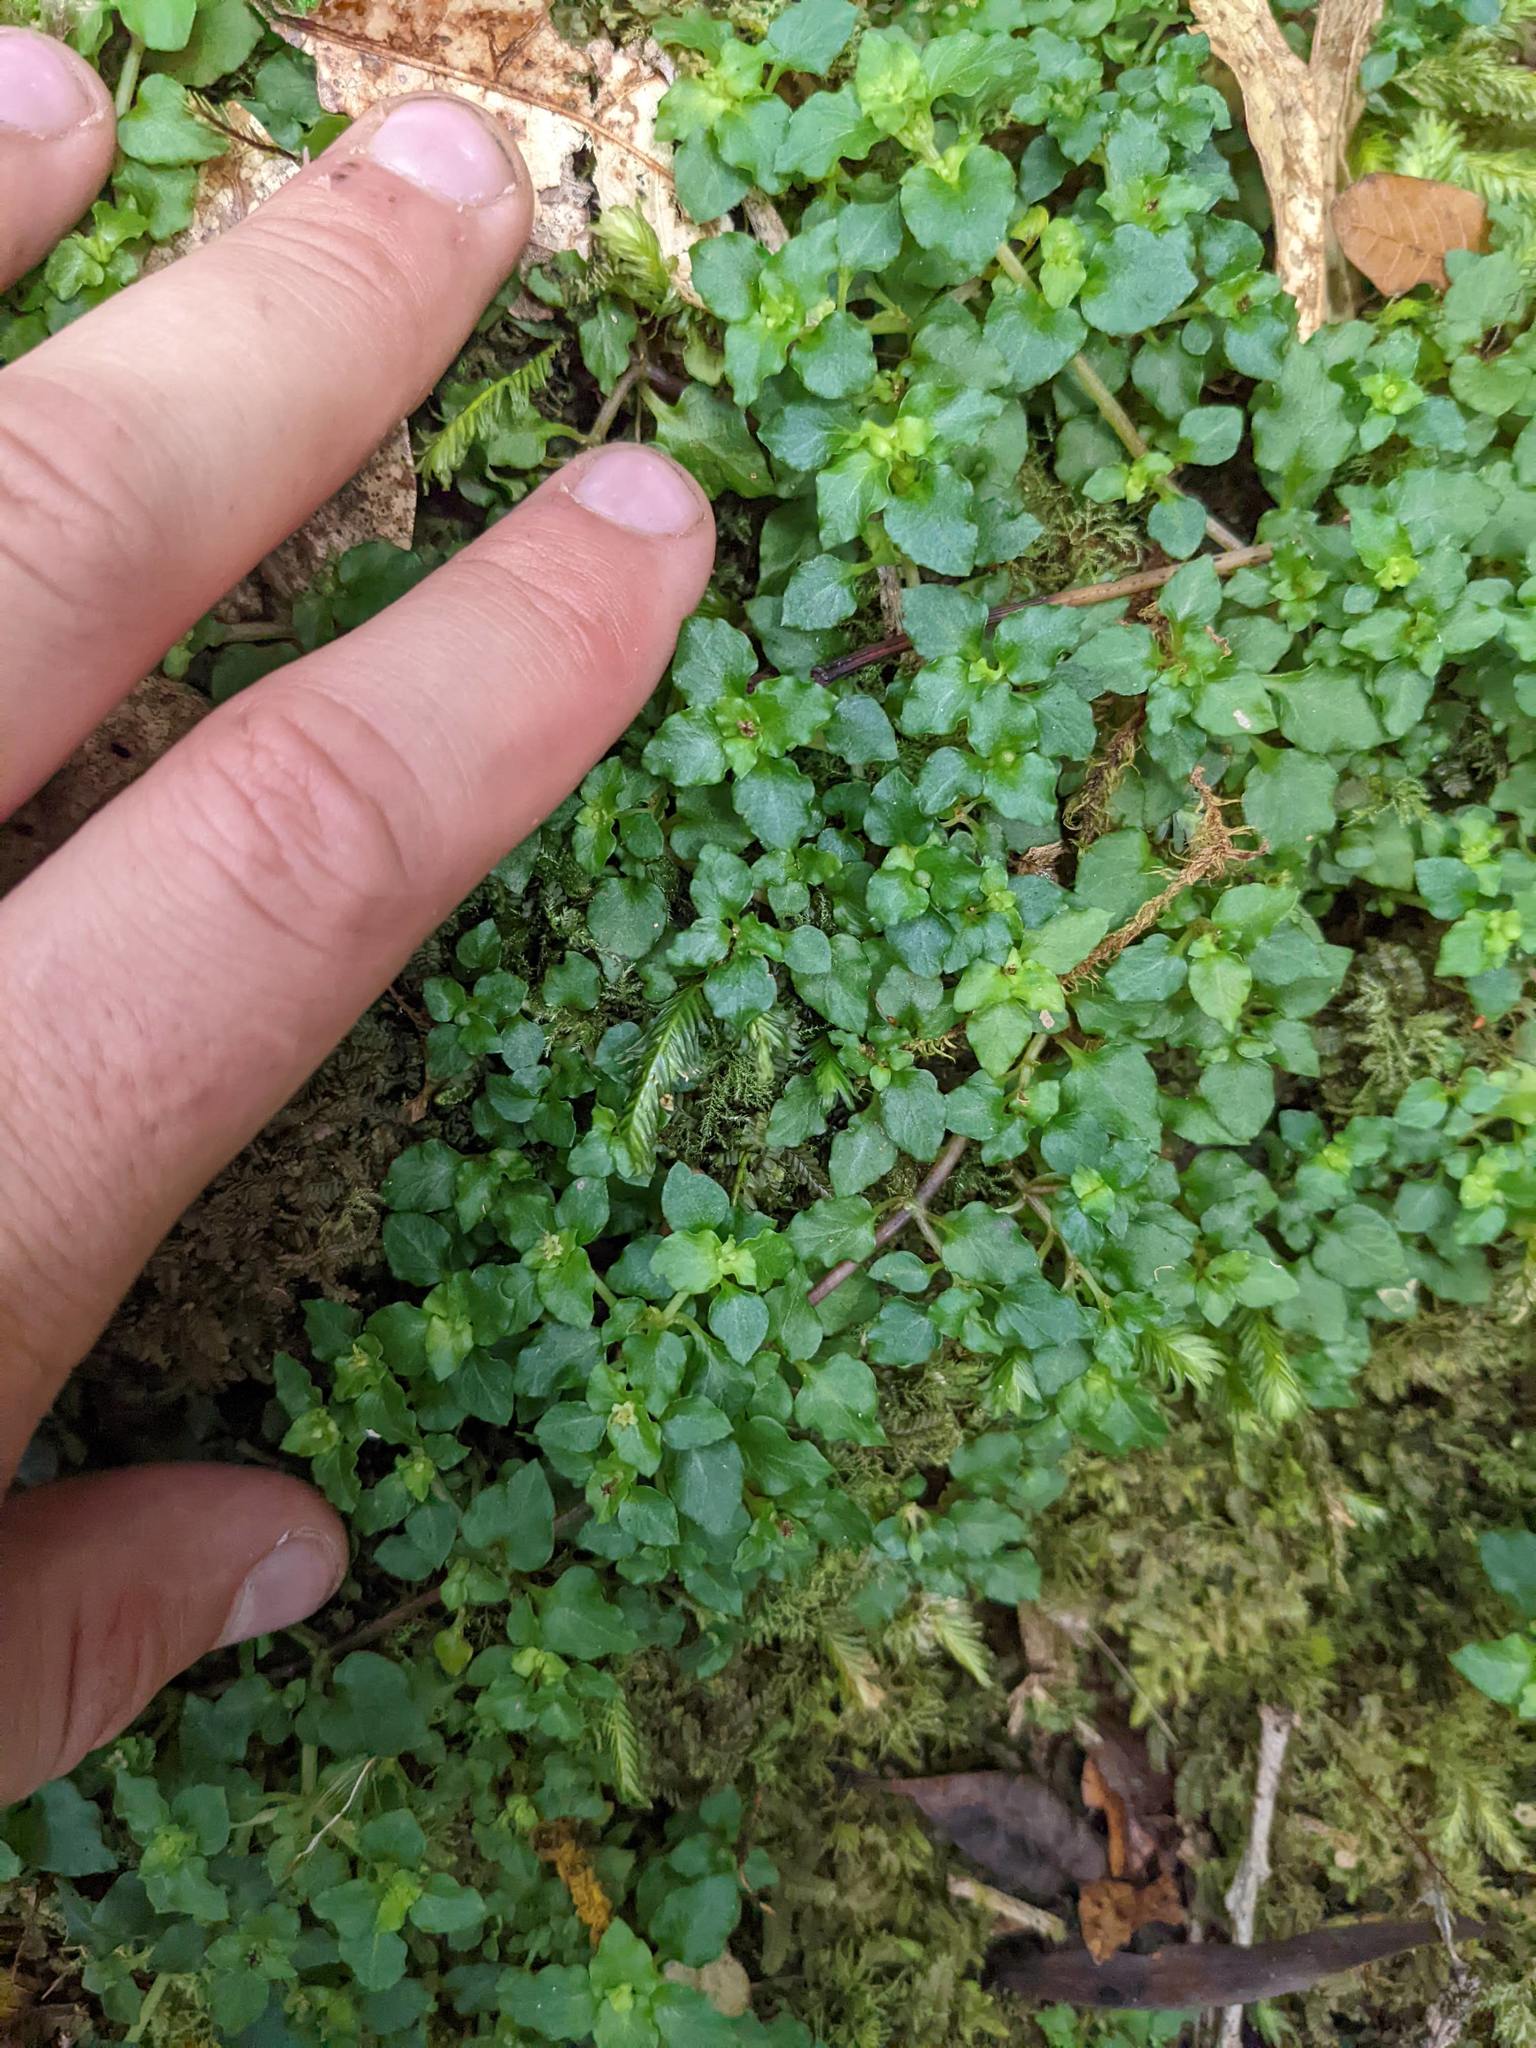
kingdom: Plantae
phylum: Tracheophyta
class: Magnoliopsida
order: Gentianales
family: Rubiaceae
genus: Nertera
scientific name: Nertera granadensis
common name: Beadplant
